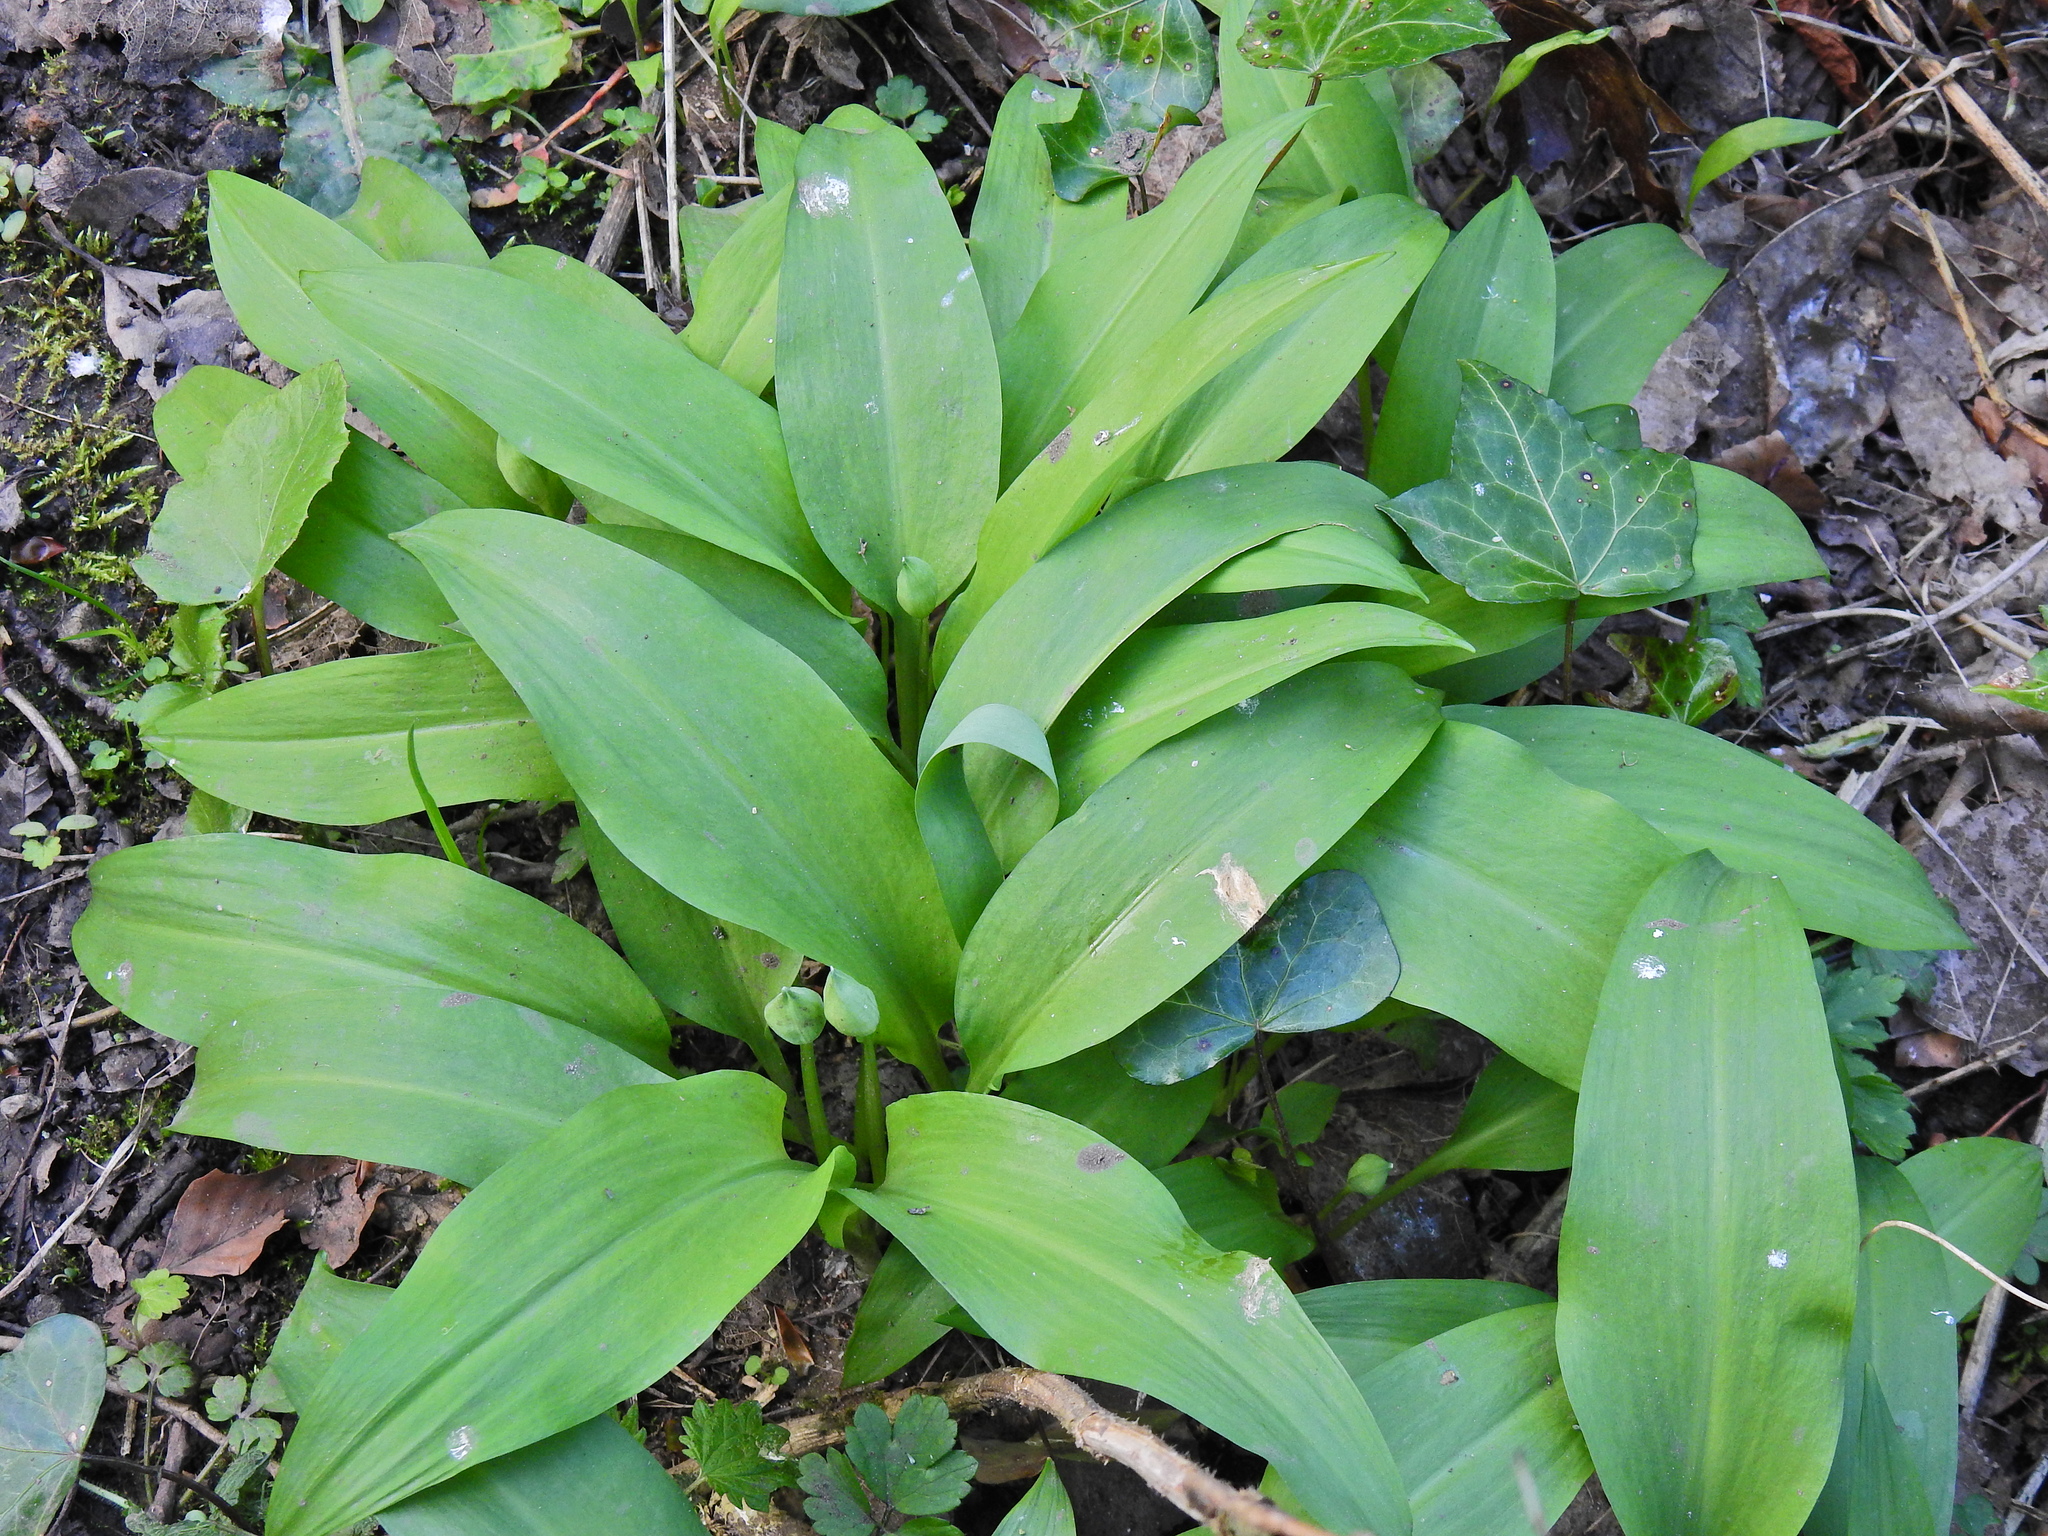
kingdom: Plantae
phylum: Tracheophyta
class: Liliopsida
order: Asparagales
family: Amaryllidaceae
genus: Allium
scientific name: Allium ursinum
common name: Ramsons
